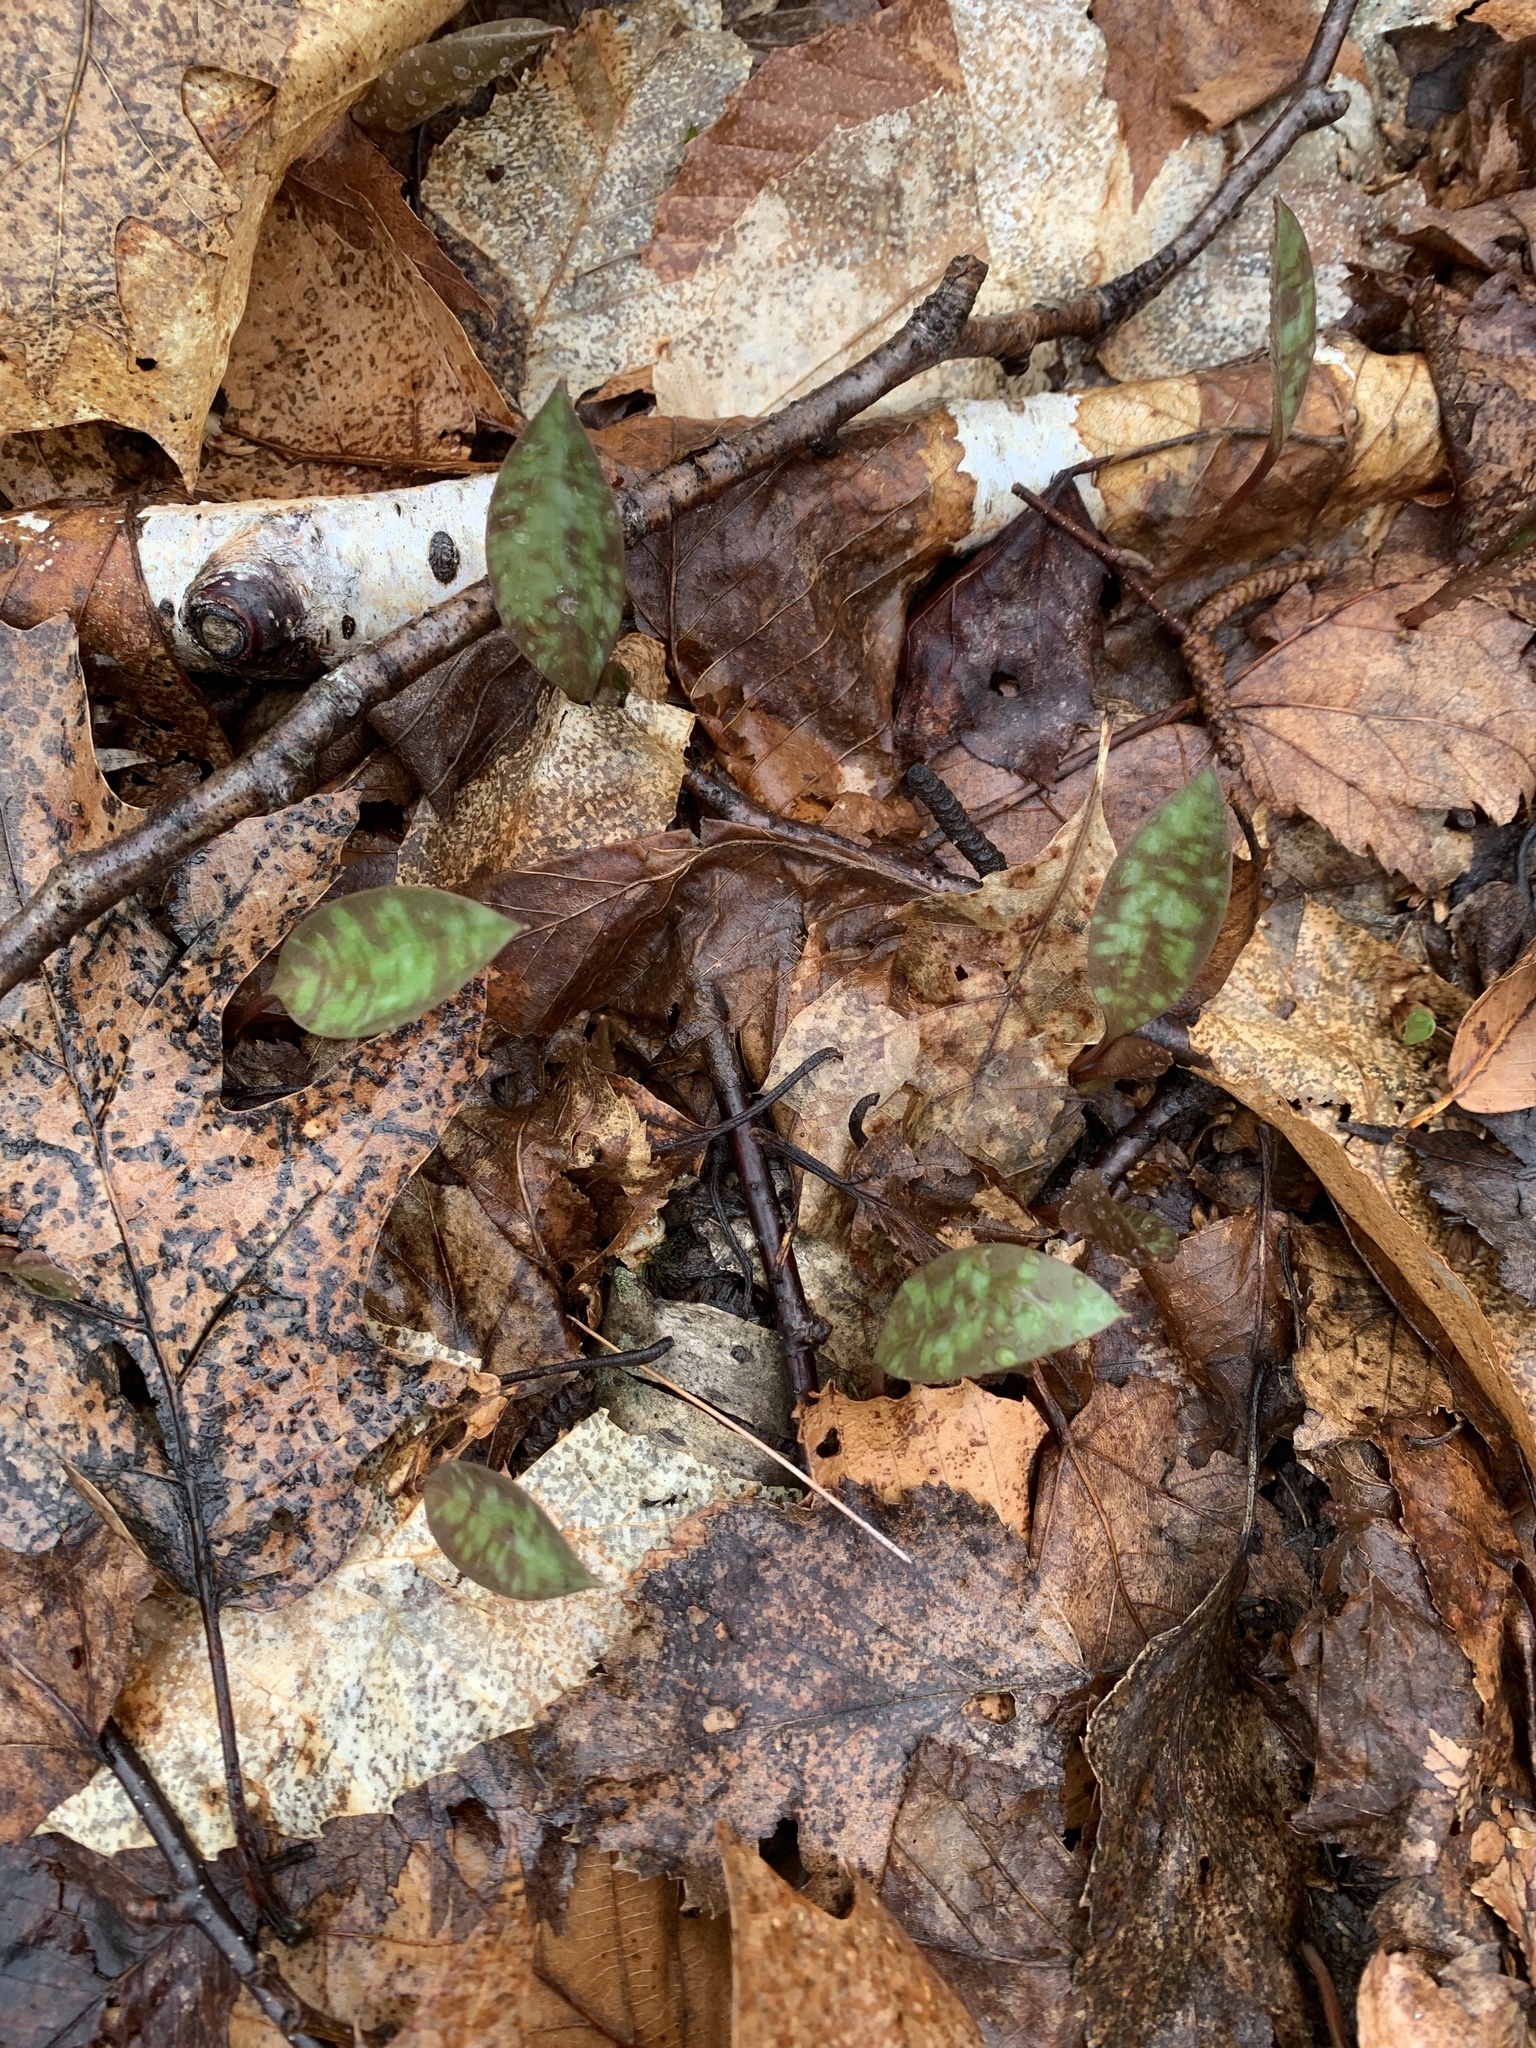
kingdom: Plantae
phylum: Tracheophyta
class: Liliopsida
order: Liliales
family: Liliaceae
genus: Erythronium
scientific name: Erythronium americanum
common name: Yellow adder's-tongue
